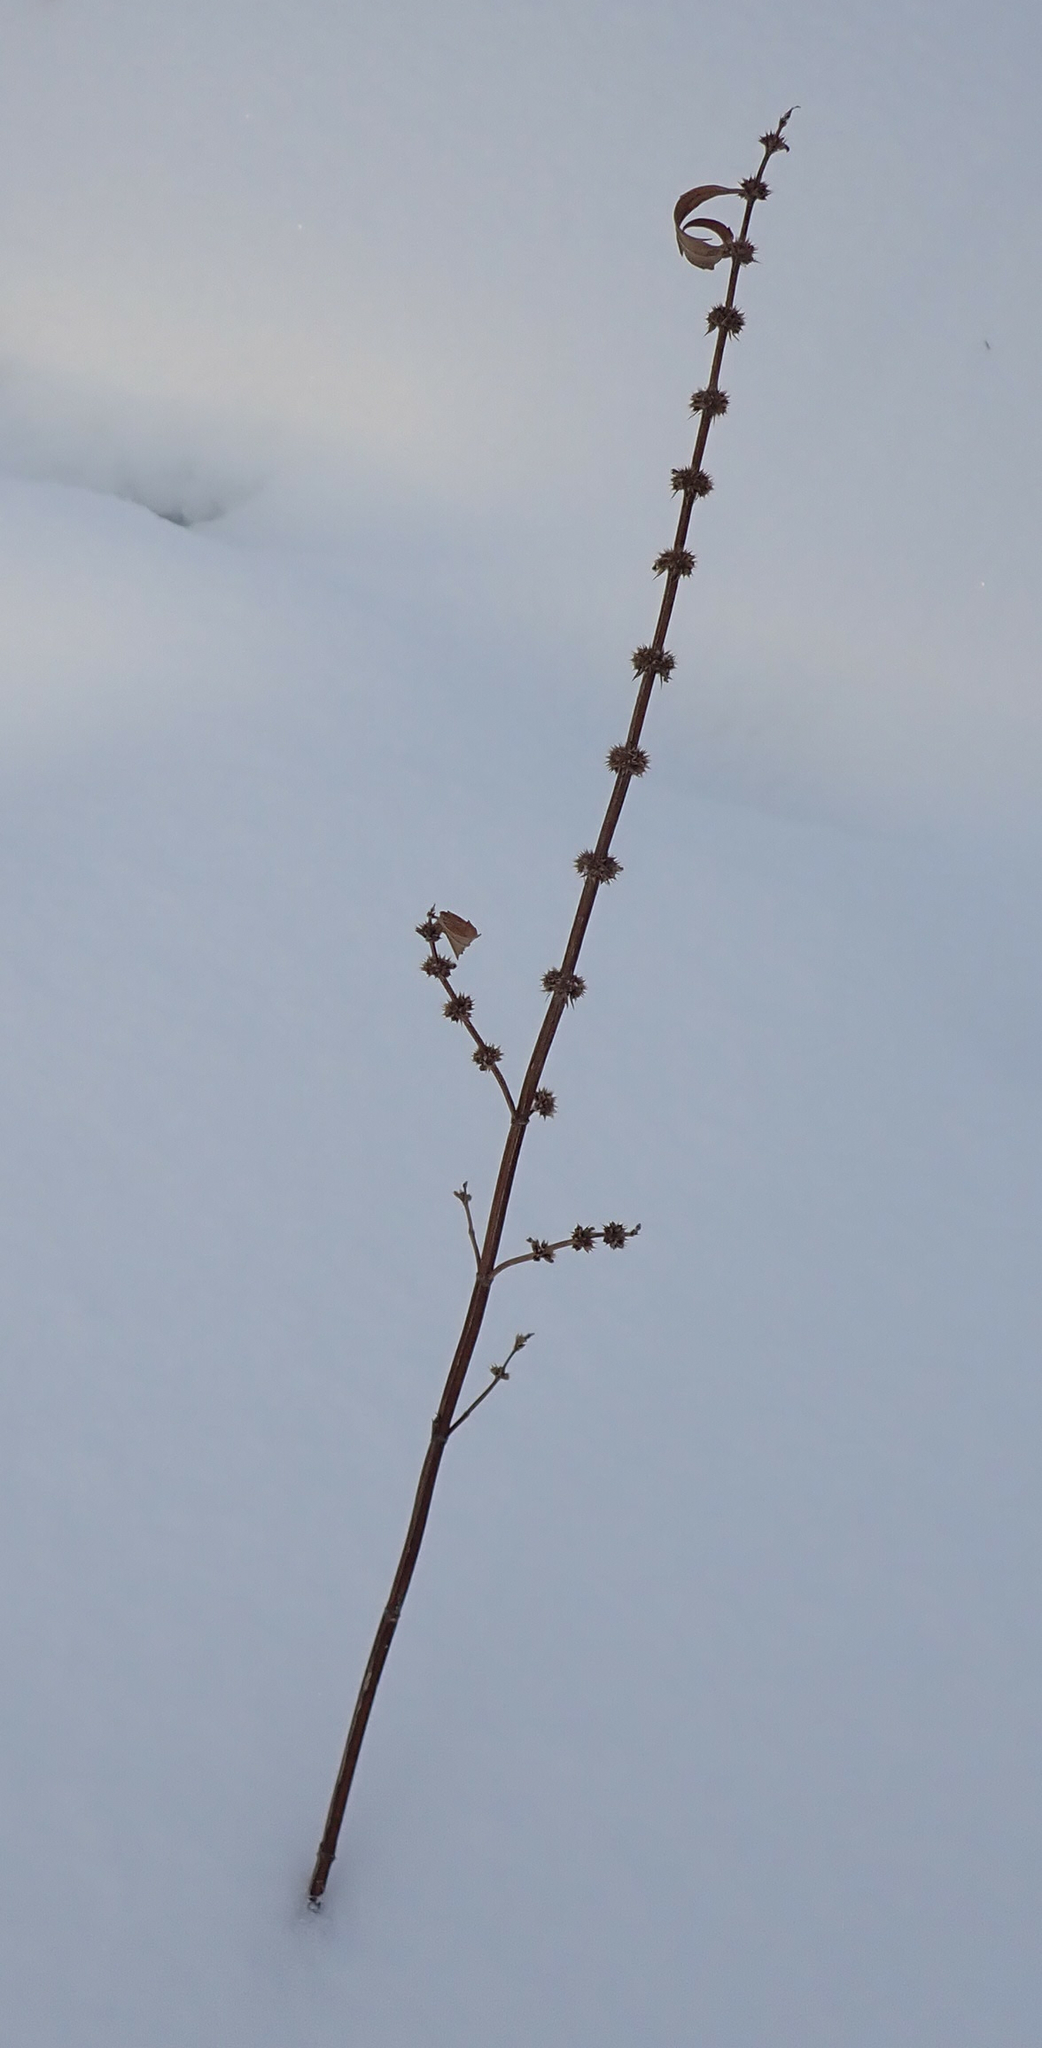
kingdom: Plantae
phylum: Tracheophyta
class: Magnoliopsida
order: Lamiales
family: Lamiaceae
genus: Mentha
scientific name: Mentha canadensis
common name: American corn mint
